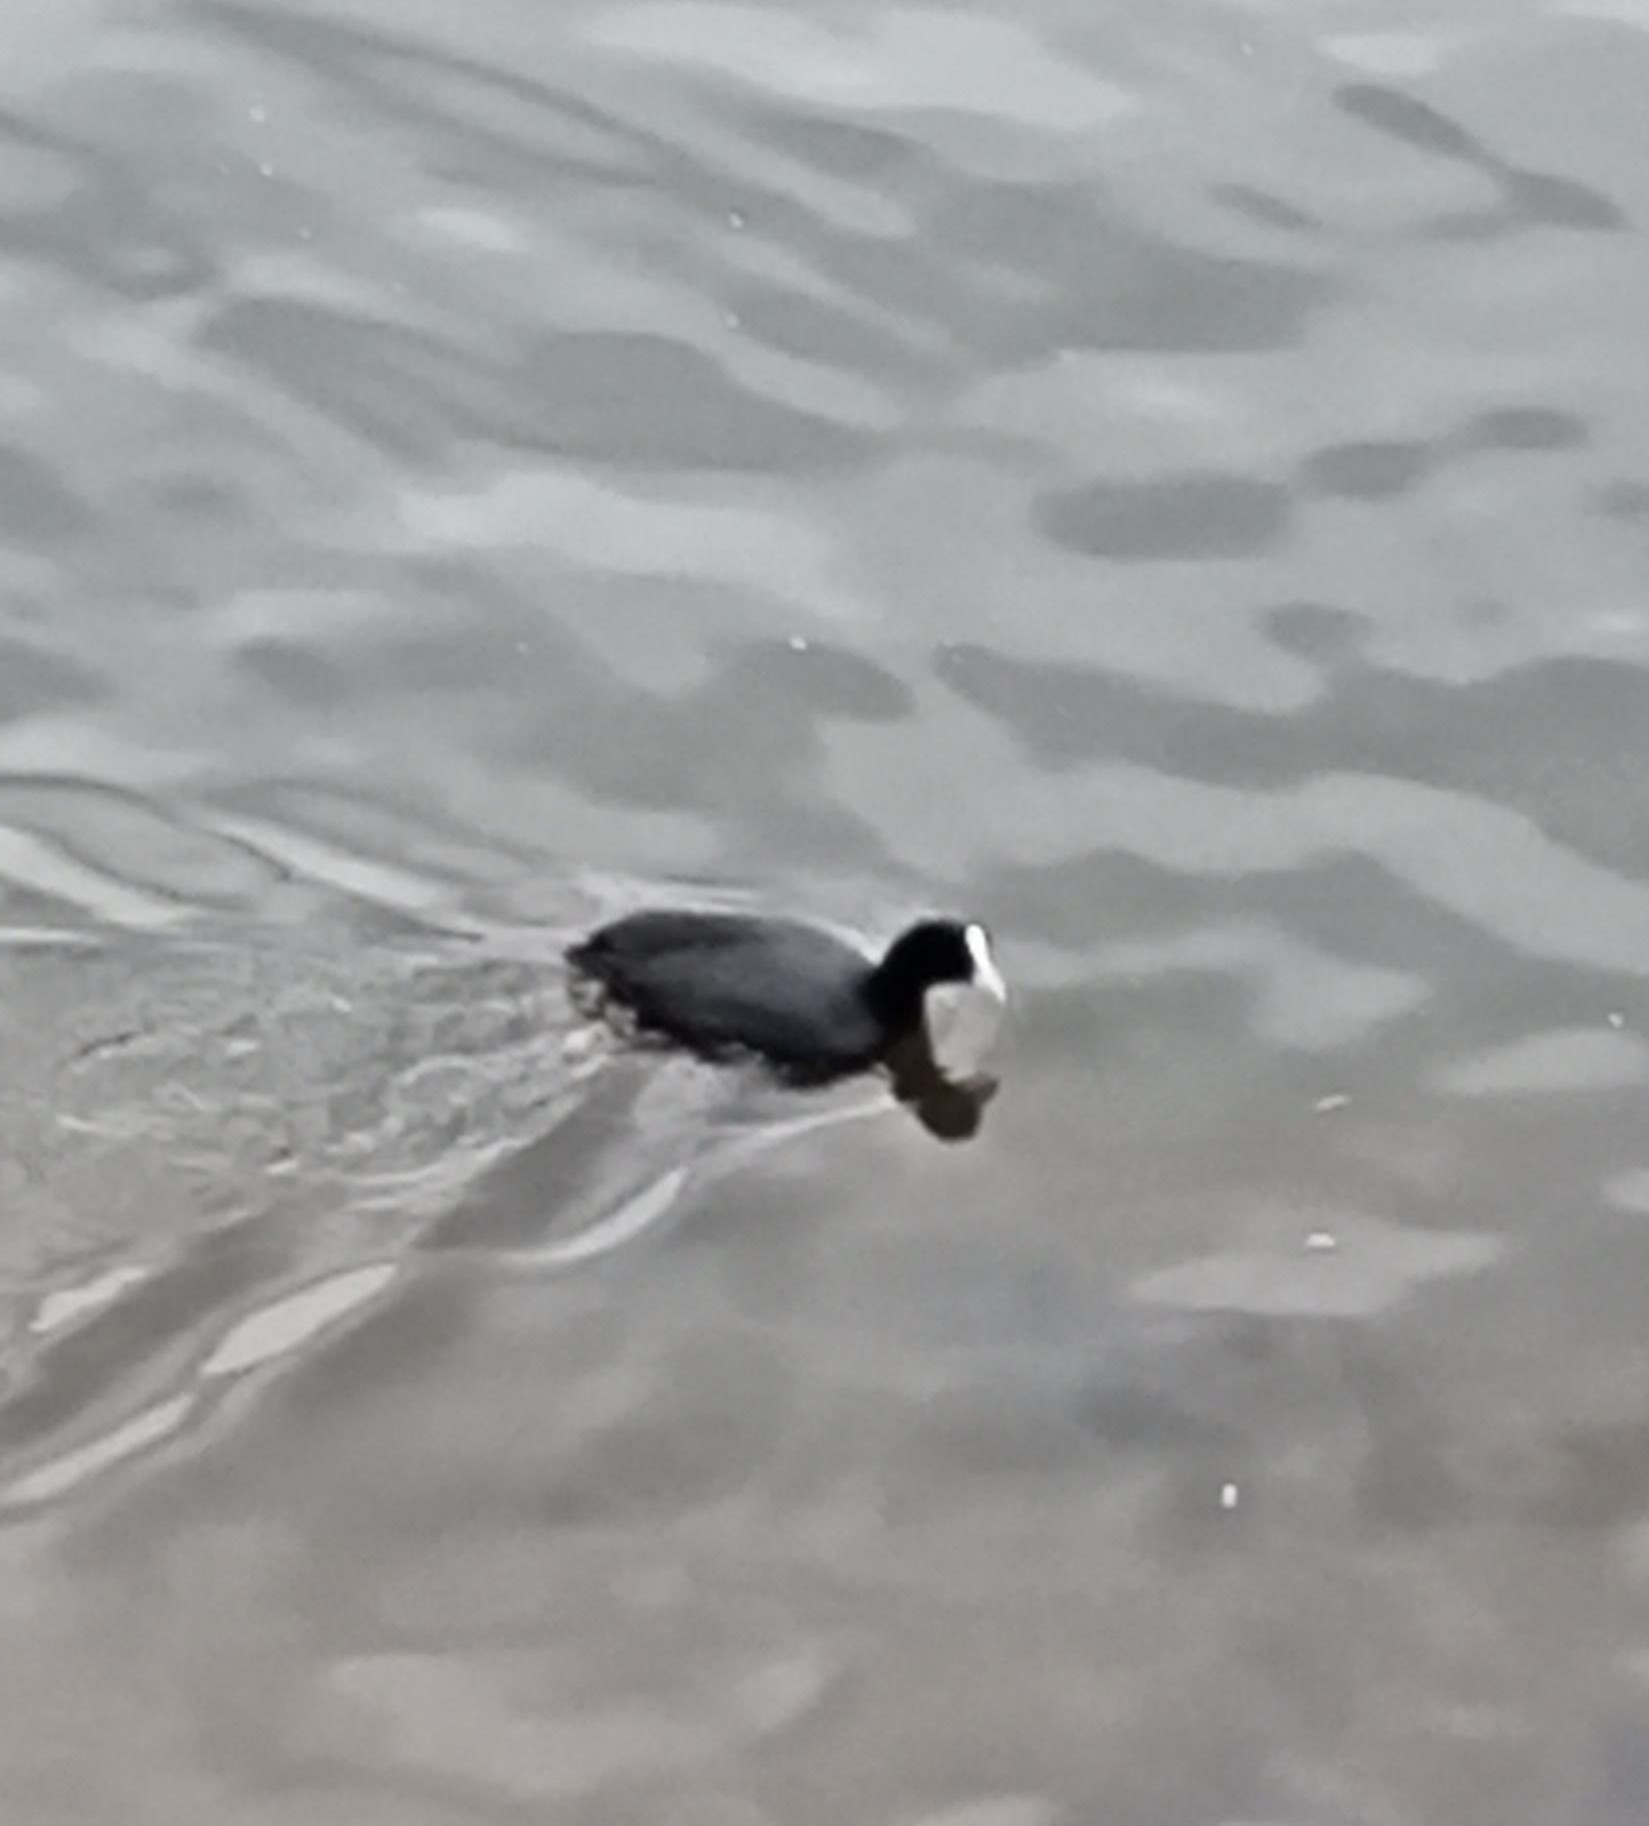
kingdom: Animalia
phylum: Chordata
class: Aves
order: Gruiformes
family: Rallidae
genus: Fulica
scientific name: Fulica atra
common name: Eurasian coot
